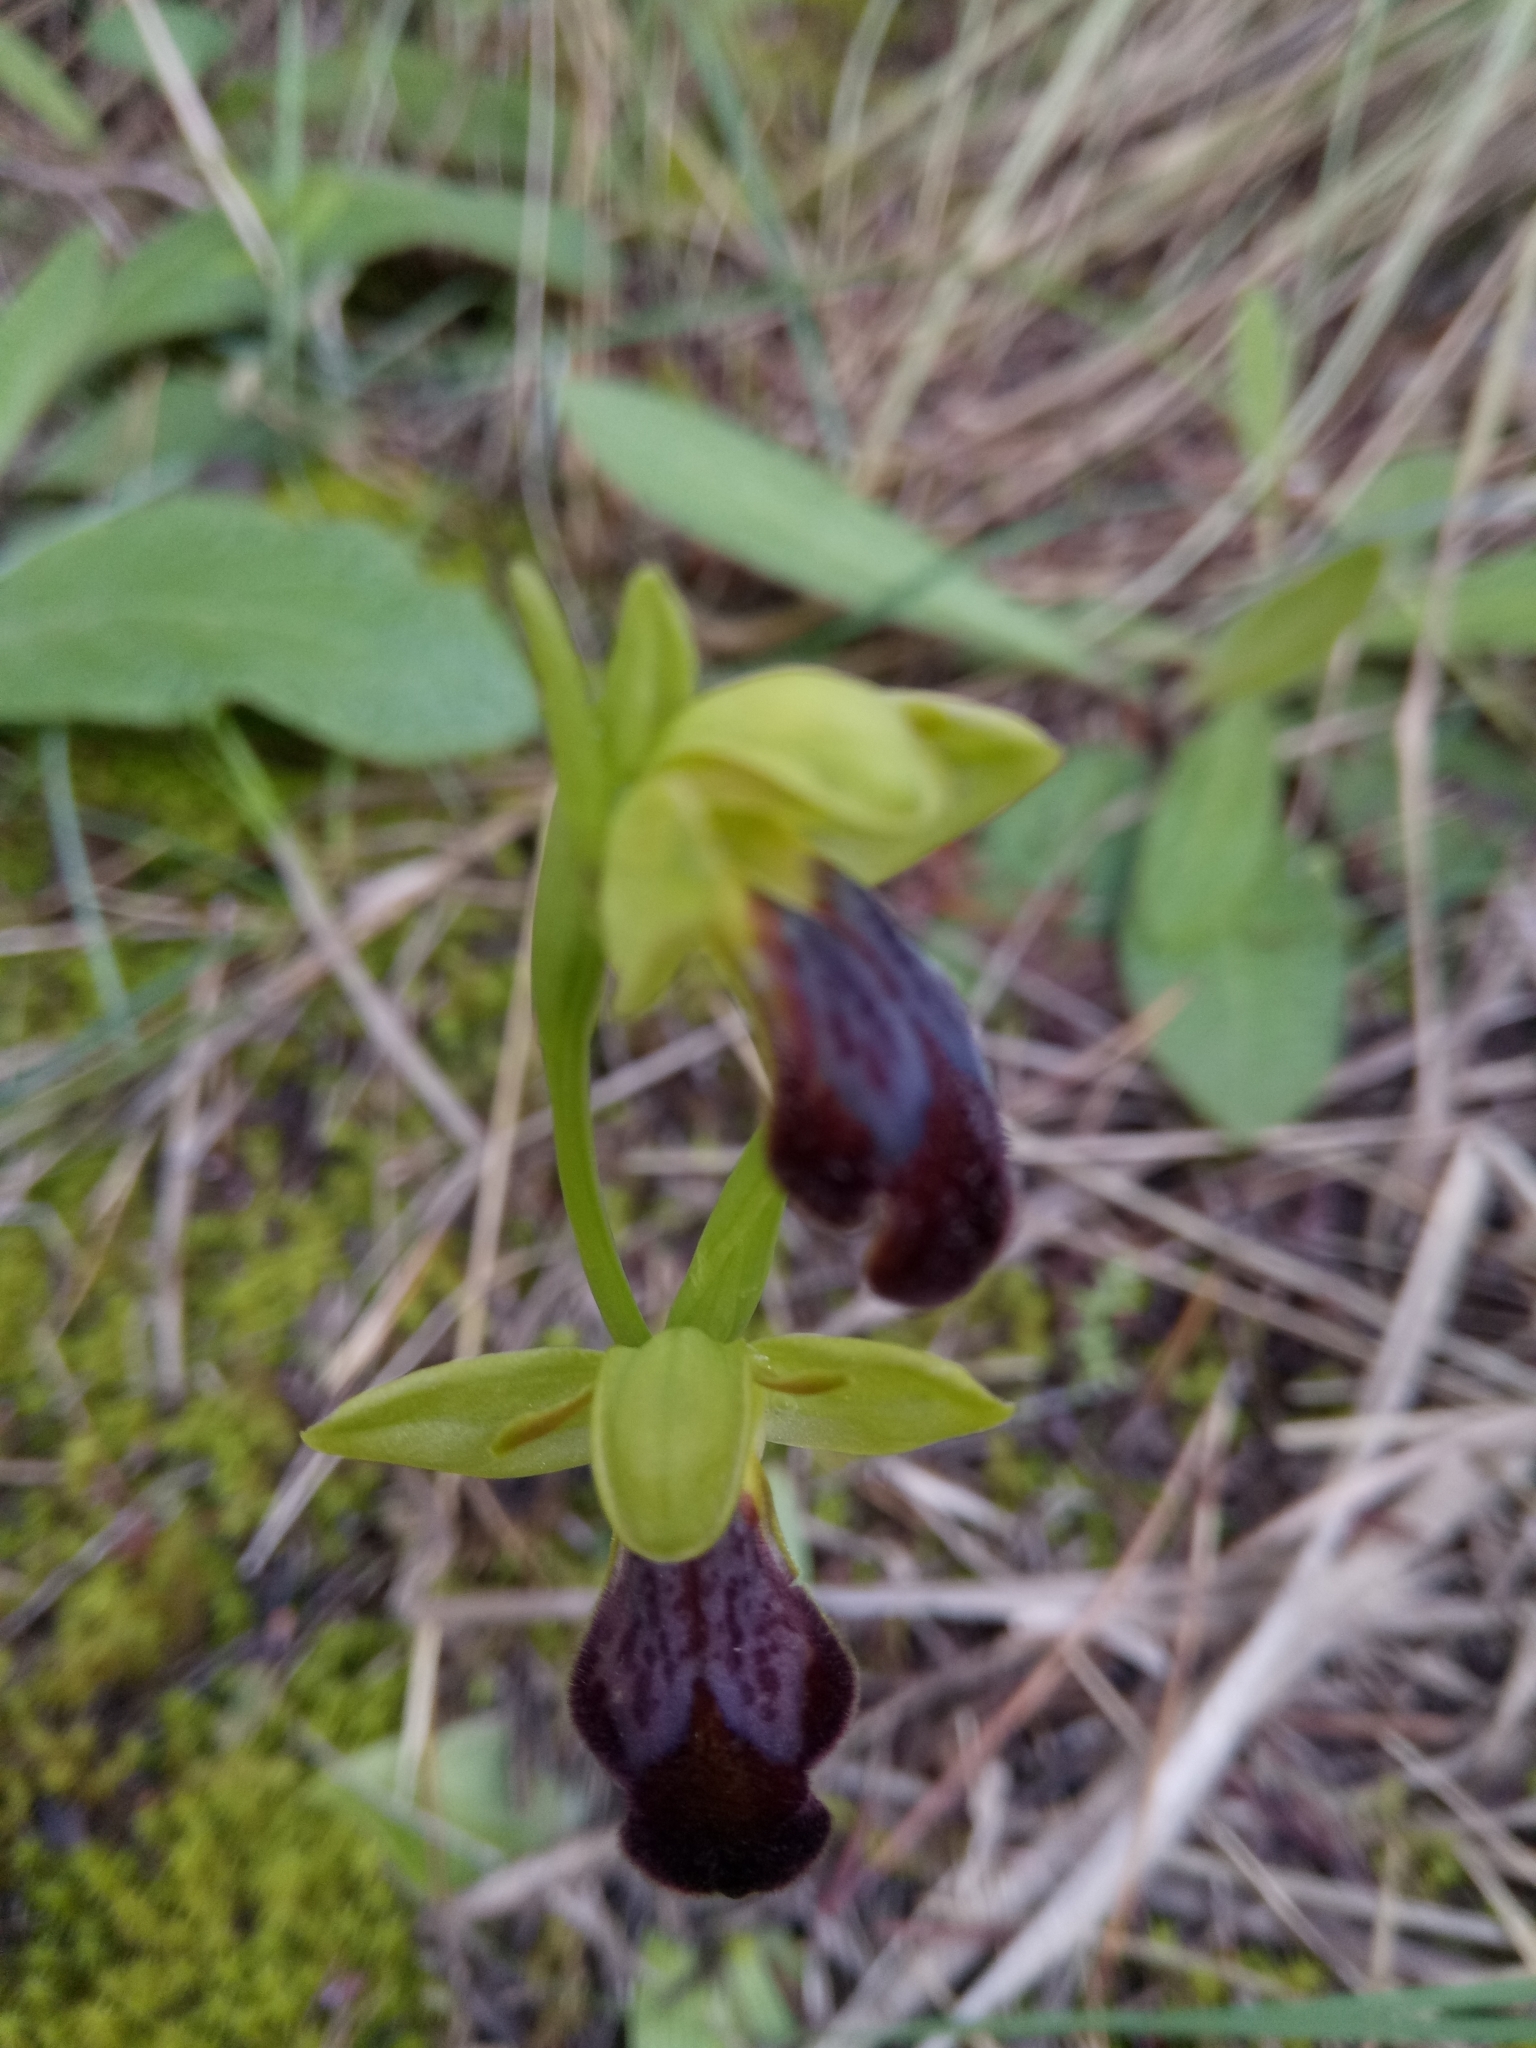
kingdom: Plantae
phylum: Tracheophyta
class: Liliopsida
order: Asparagales
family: Orchidaceae
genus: Ophrys
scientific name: Ophrys fusca
